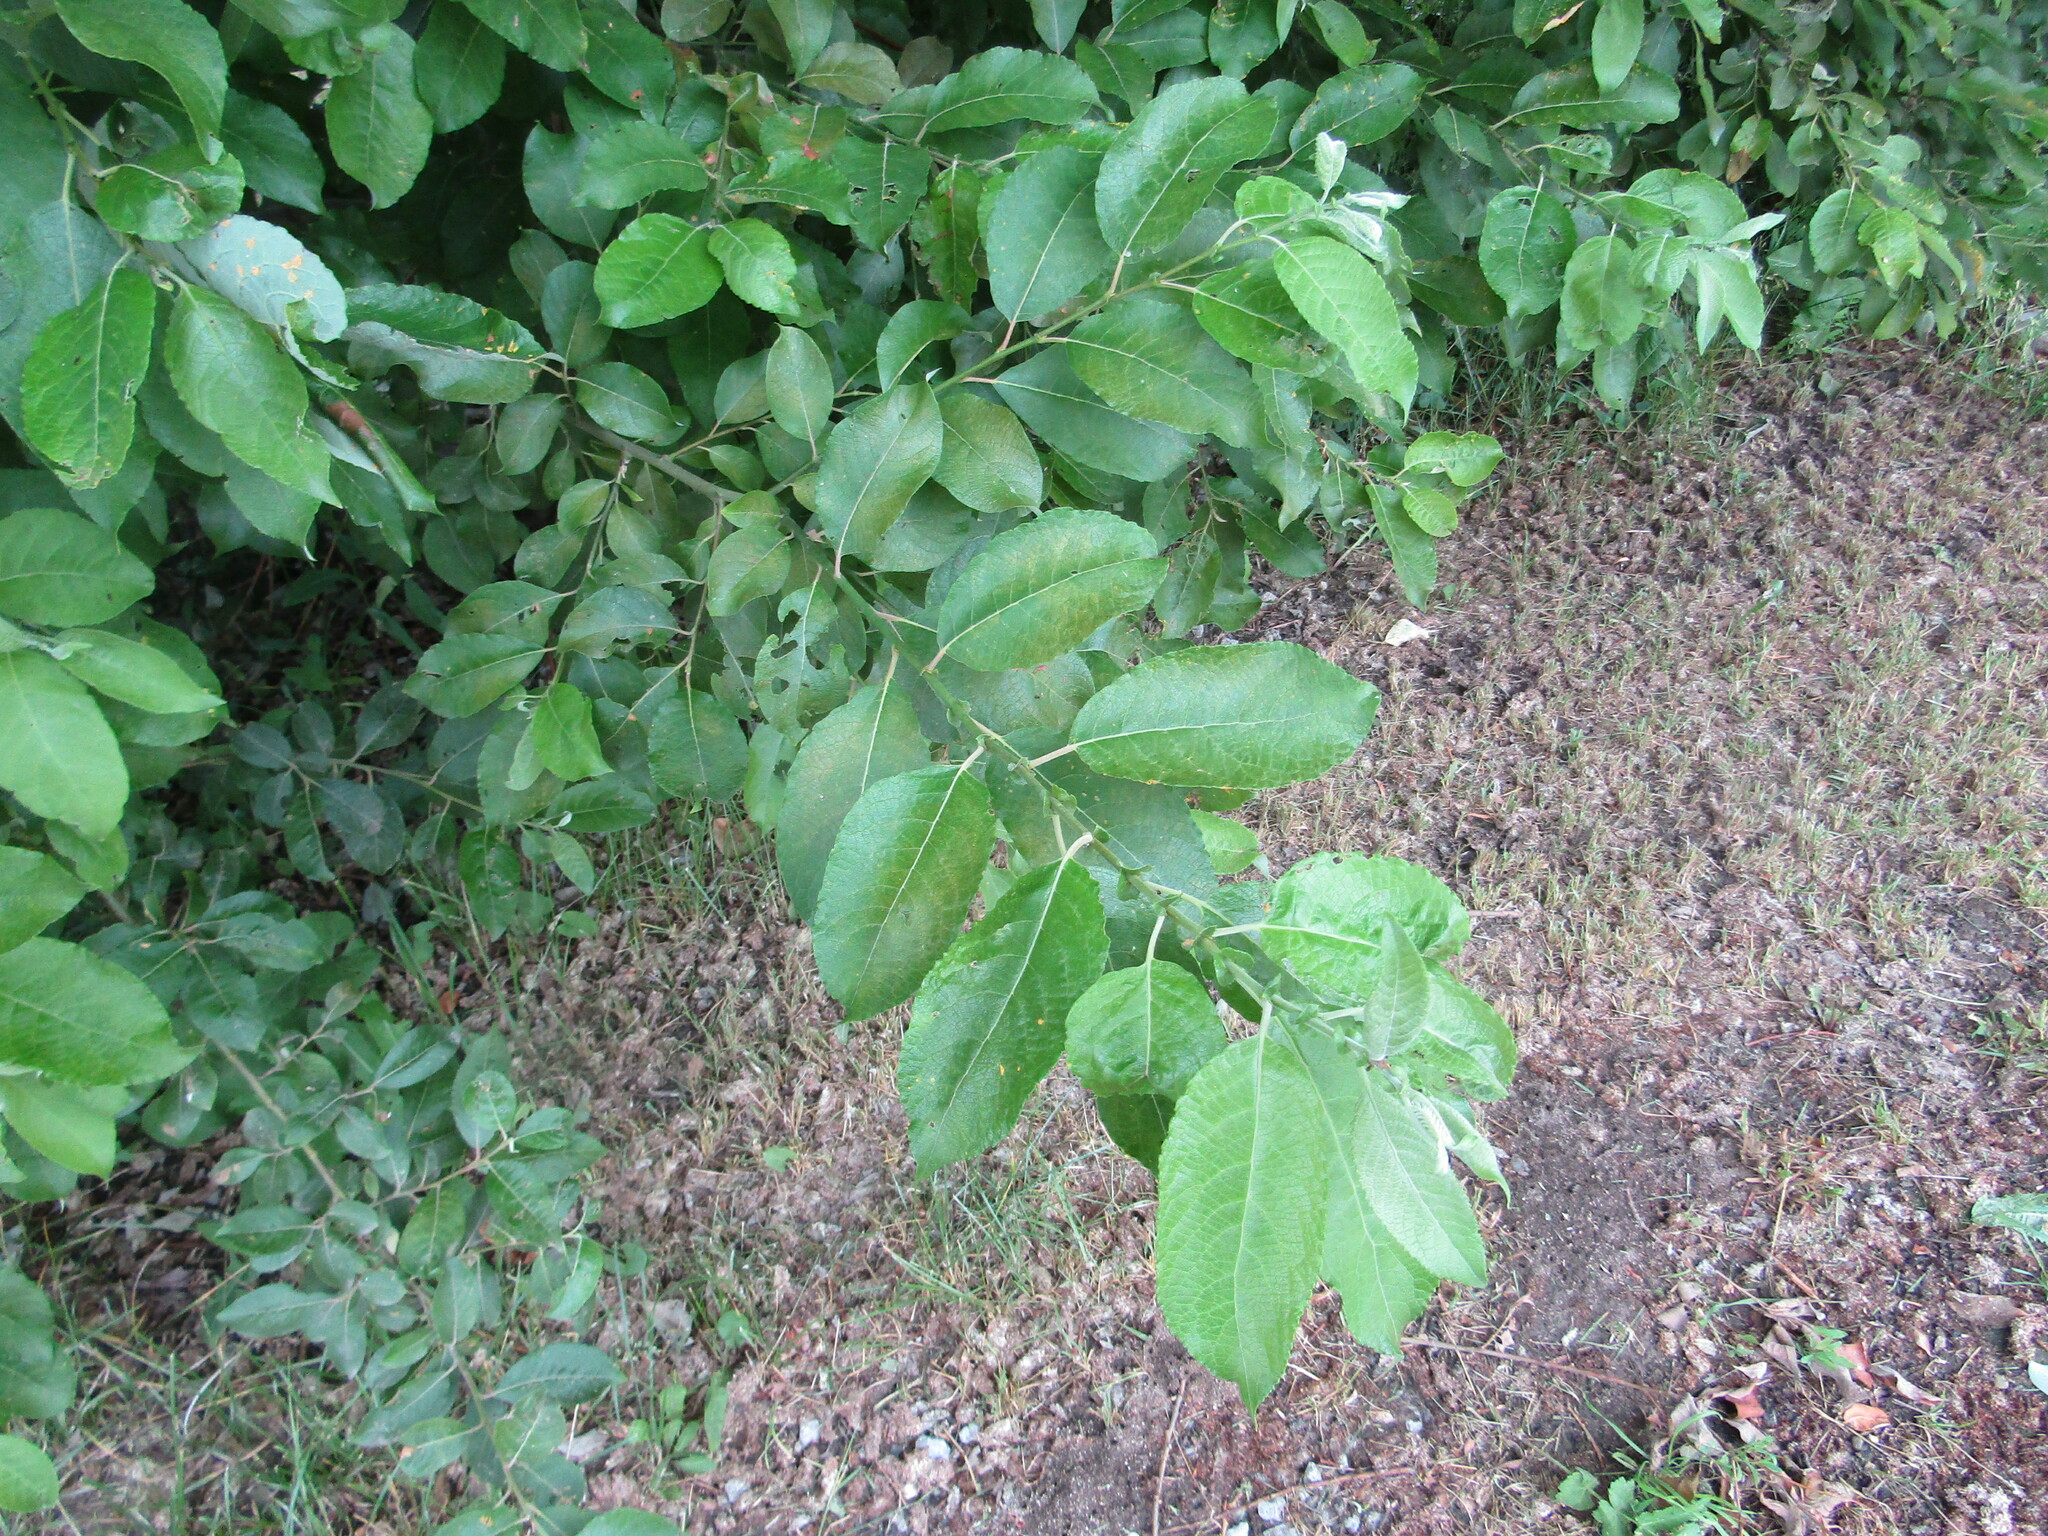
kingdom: Plantae
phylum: Tracheophyta
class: Magnoliopsida
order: Malpighiales
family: Salicaceae
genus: Salix
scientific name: Salix caprea
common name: Goat willow
